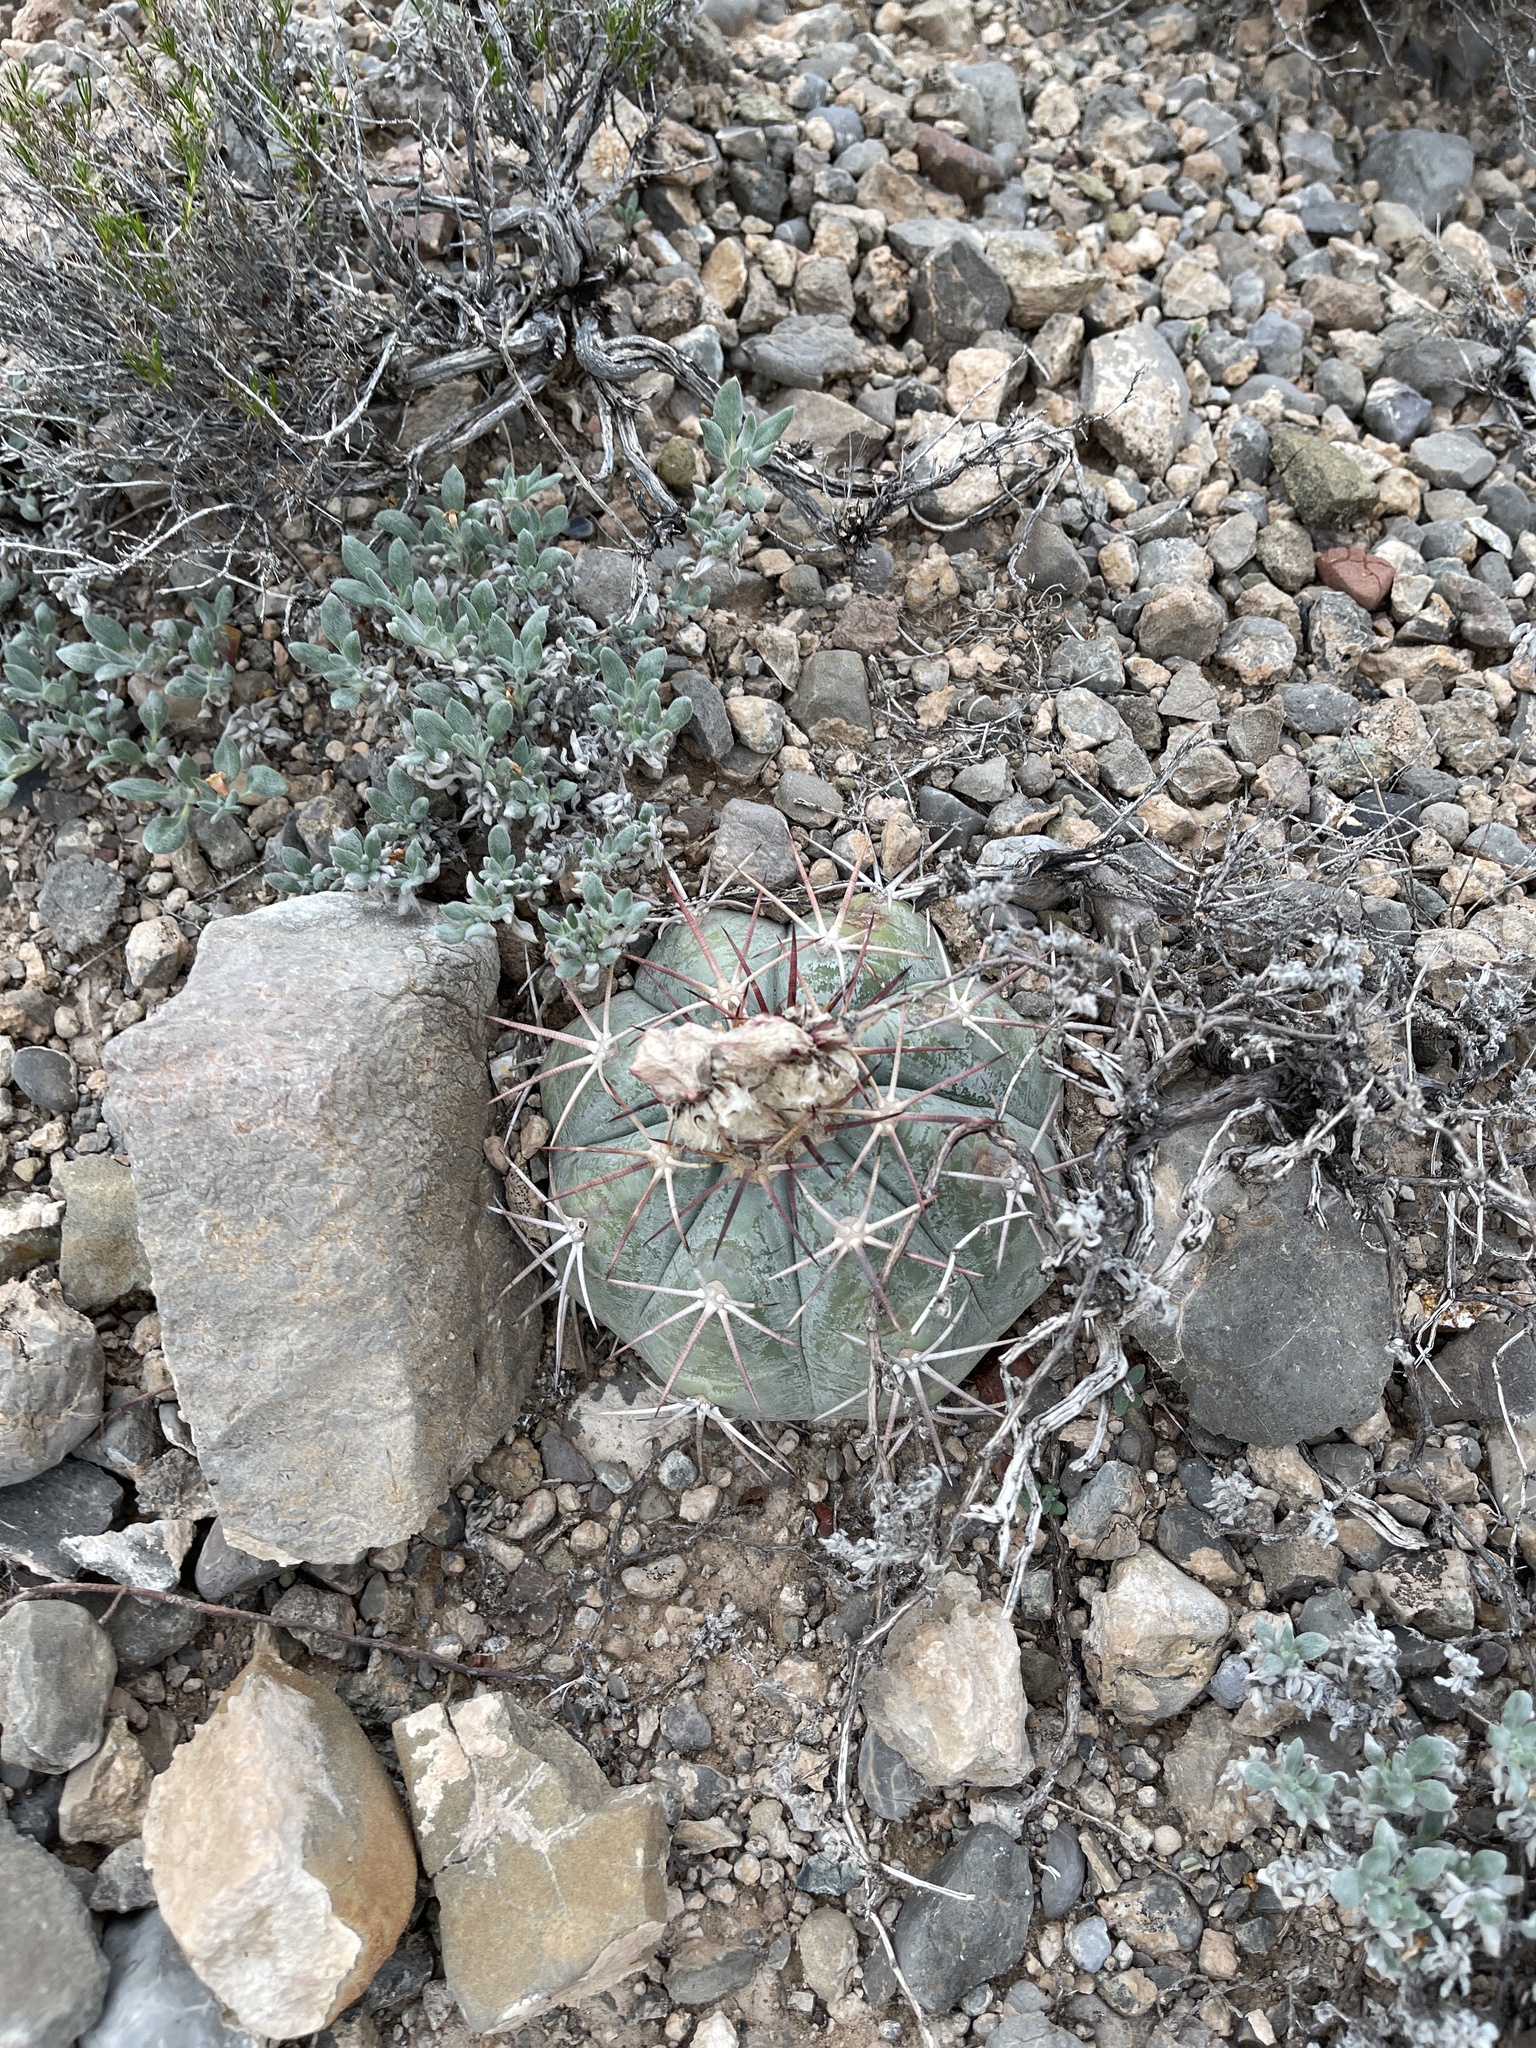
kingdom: Plantae
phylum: Tracheophyta
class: Magnoliopsida
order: Caryophyllales
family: Cactaceae
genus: Echinocactus
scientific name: Echinocactus horizonthalonius
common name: Devilshead
